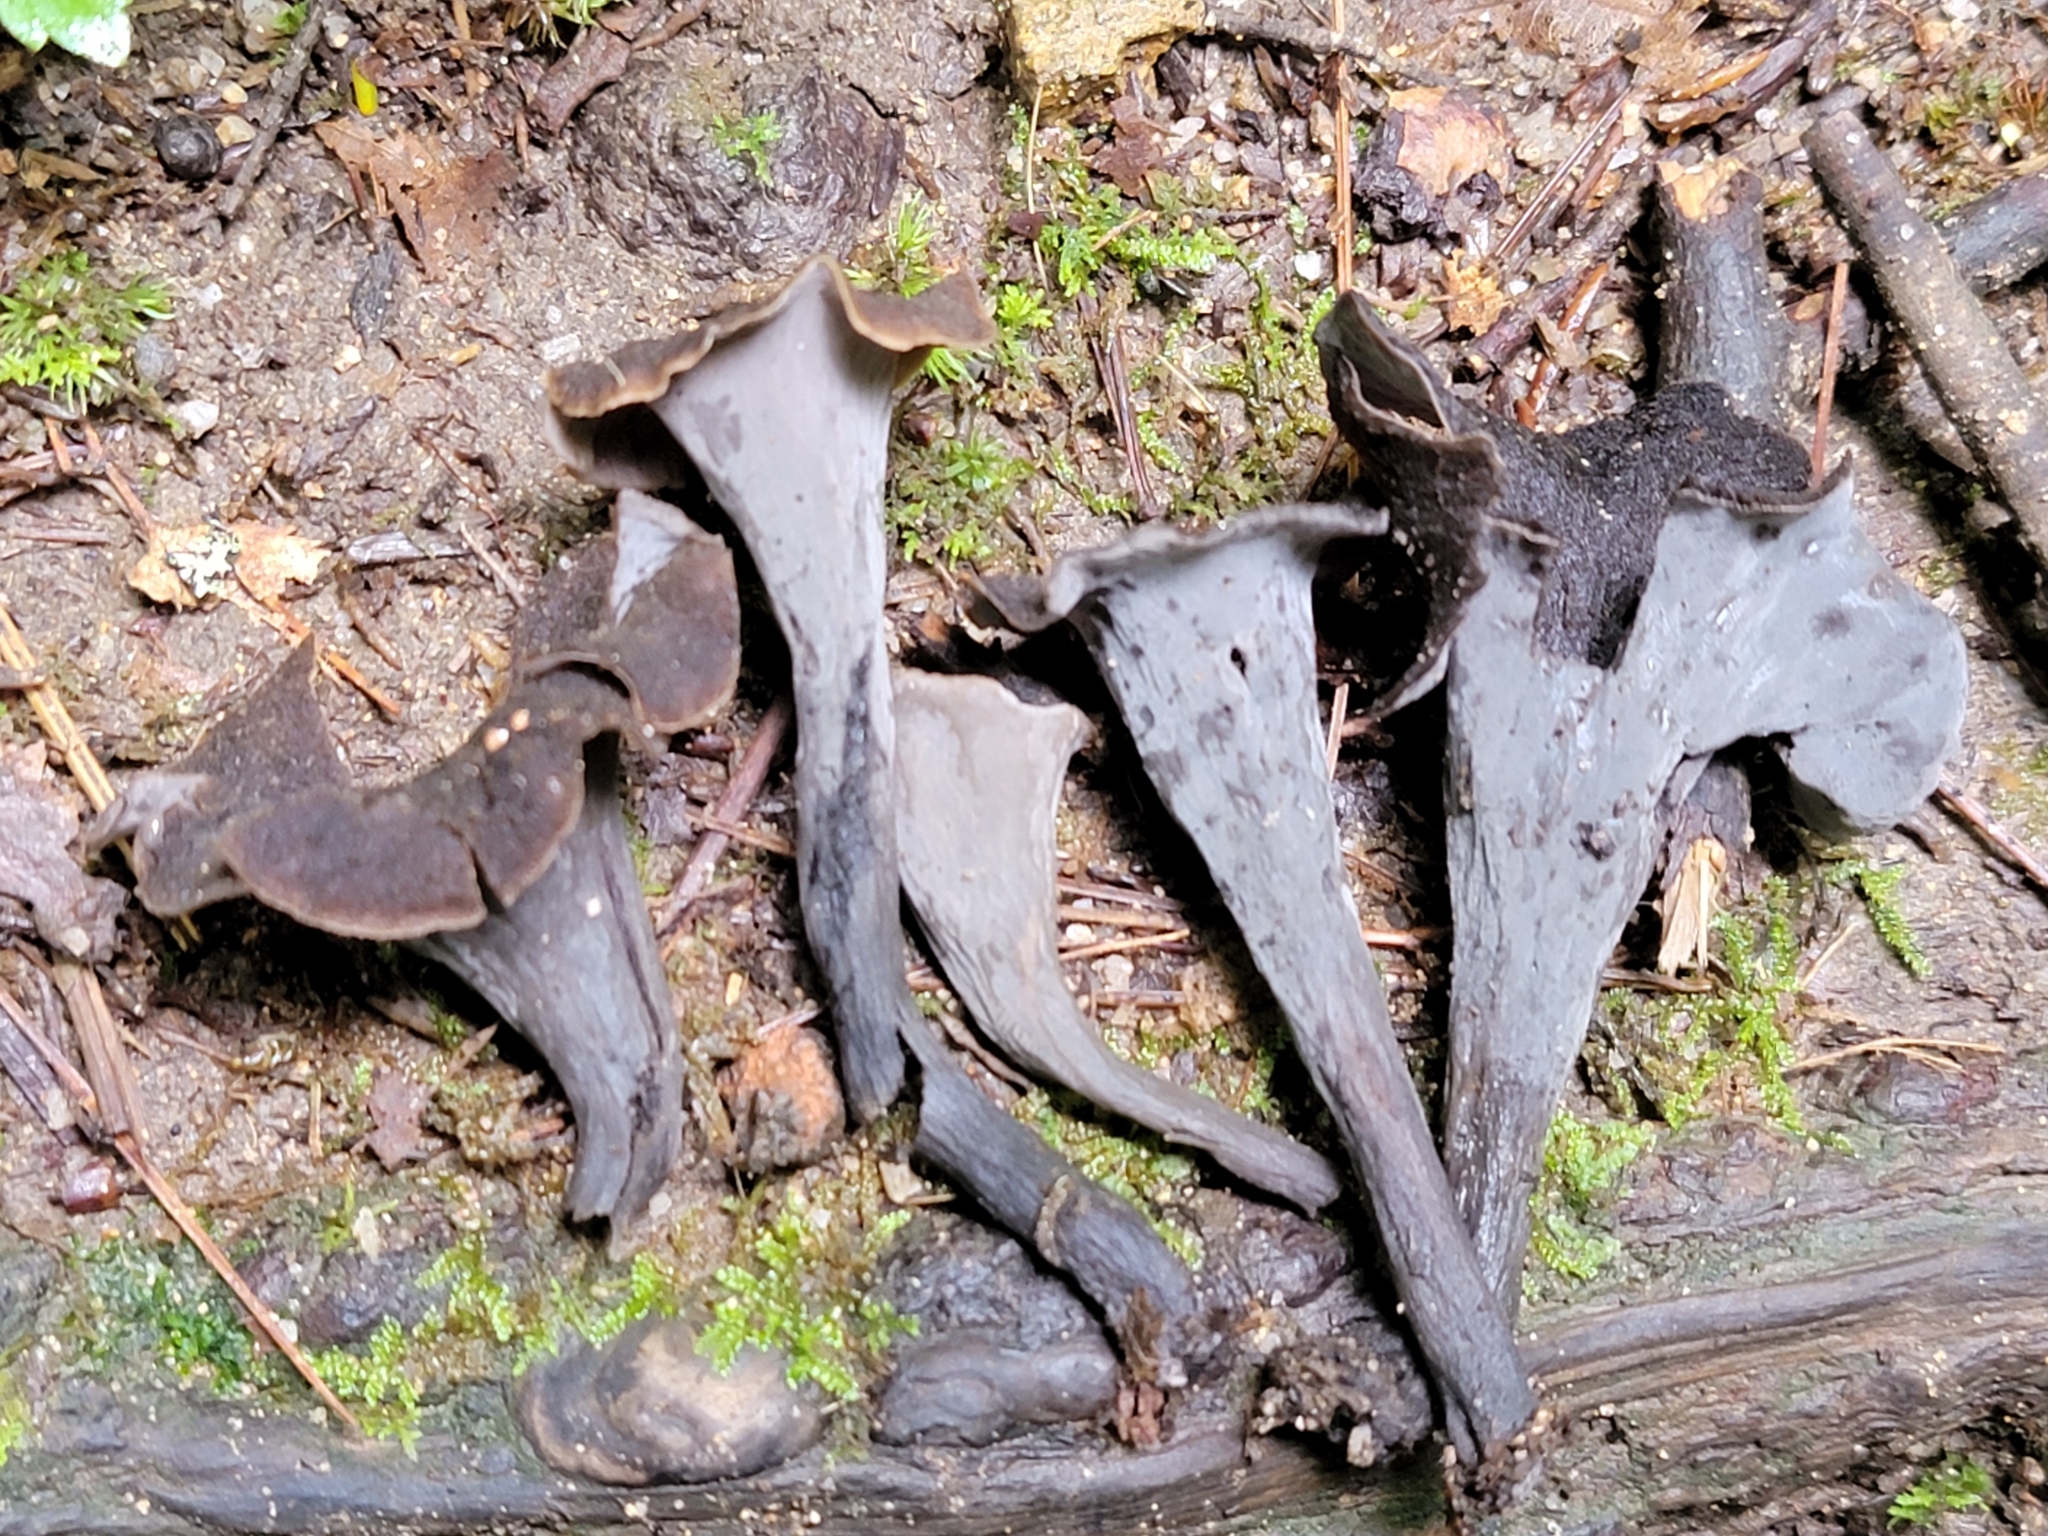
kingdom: Fungi
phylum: Basidiomycota
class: Agaricomycetes
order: Cantharellales
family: Hydnaceae
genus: Craterellus
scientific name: Craterellus cornucopioides
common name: Horn of plenty
